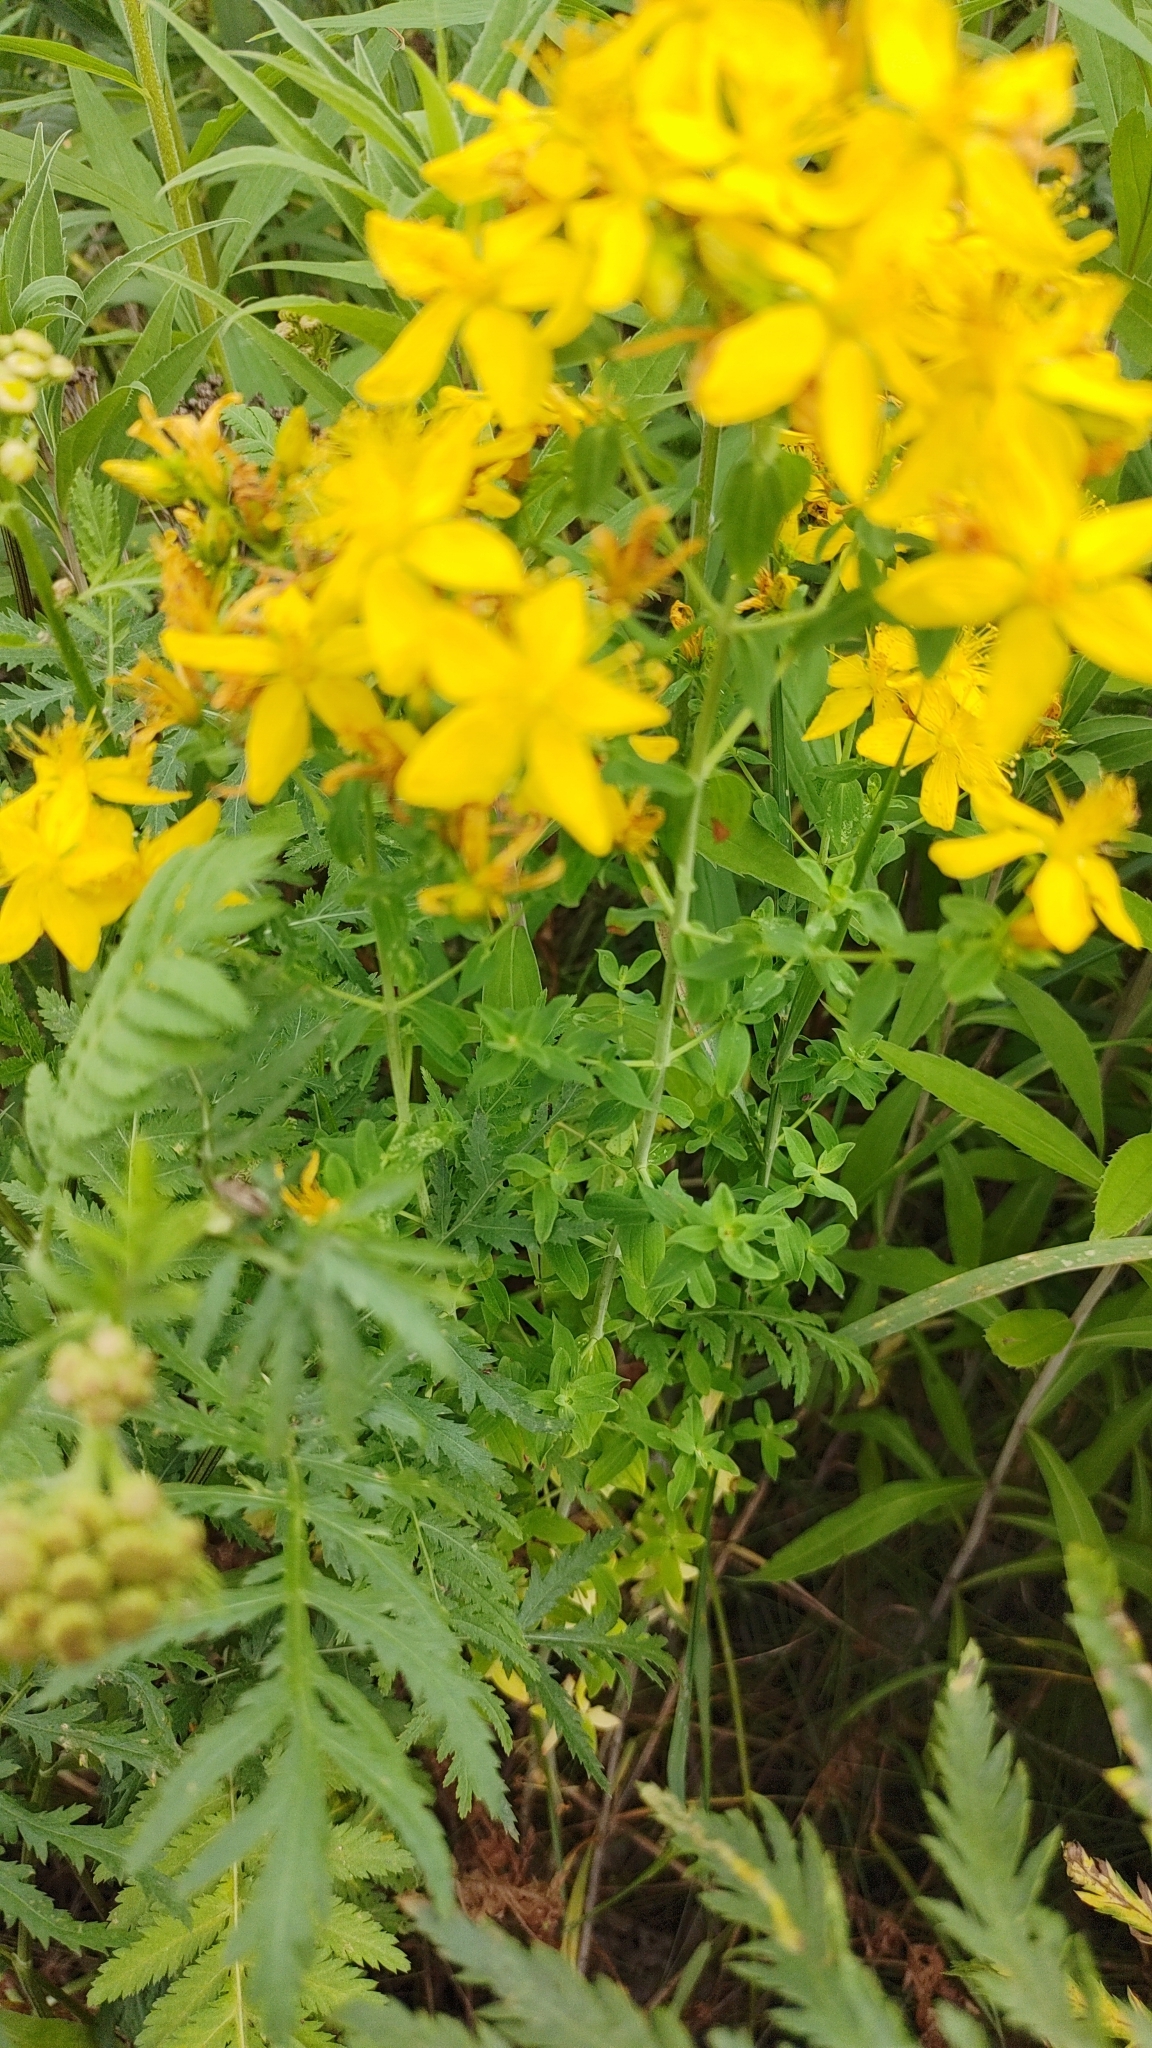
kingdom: Plantae
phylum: Tracheophyta
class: Magnoliopsida
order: Malpighiales
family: Hypericaceae
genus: Hypericum
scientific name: Hypericum perforatum
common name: Common st. johnswort
